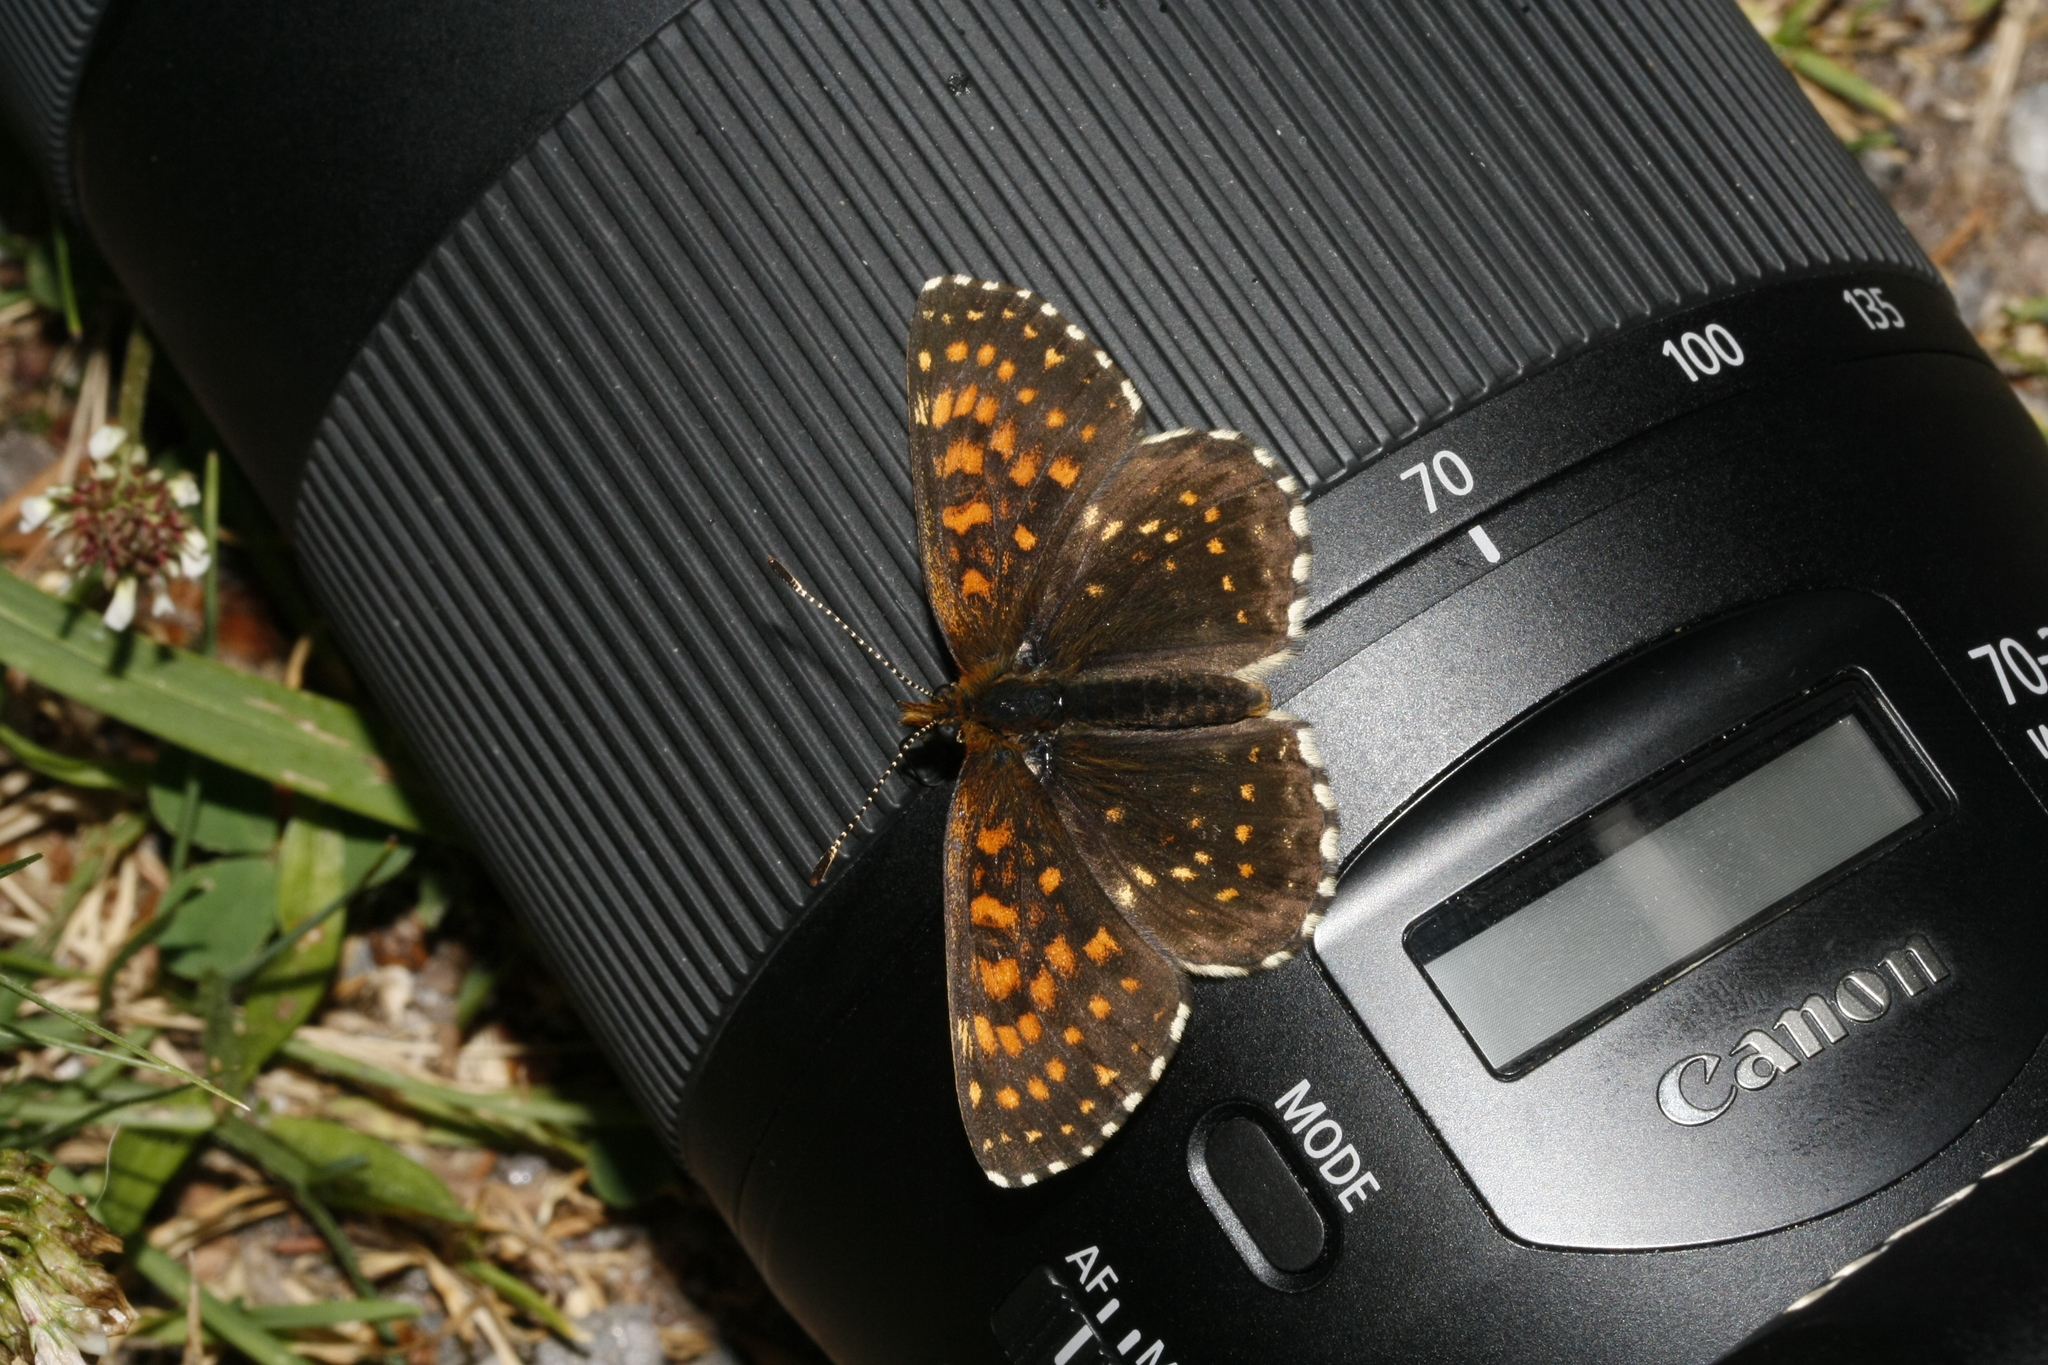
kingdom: Animalia
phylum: Arthropoda
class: Insecta
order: Lepidoptera
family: Nymphalidae
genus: Melitaea
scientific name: Melitaea diamina
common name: False heath fritillary
